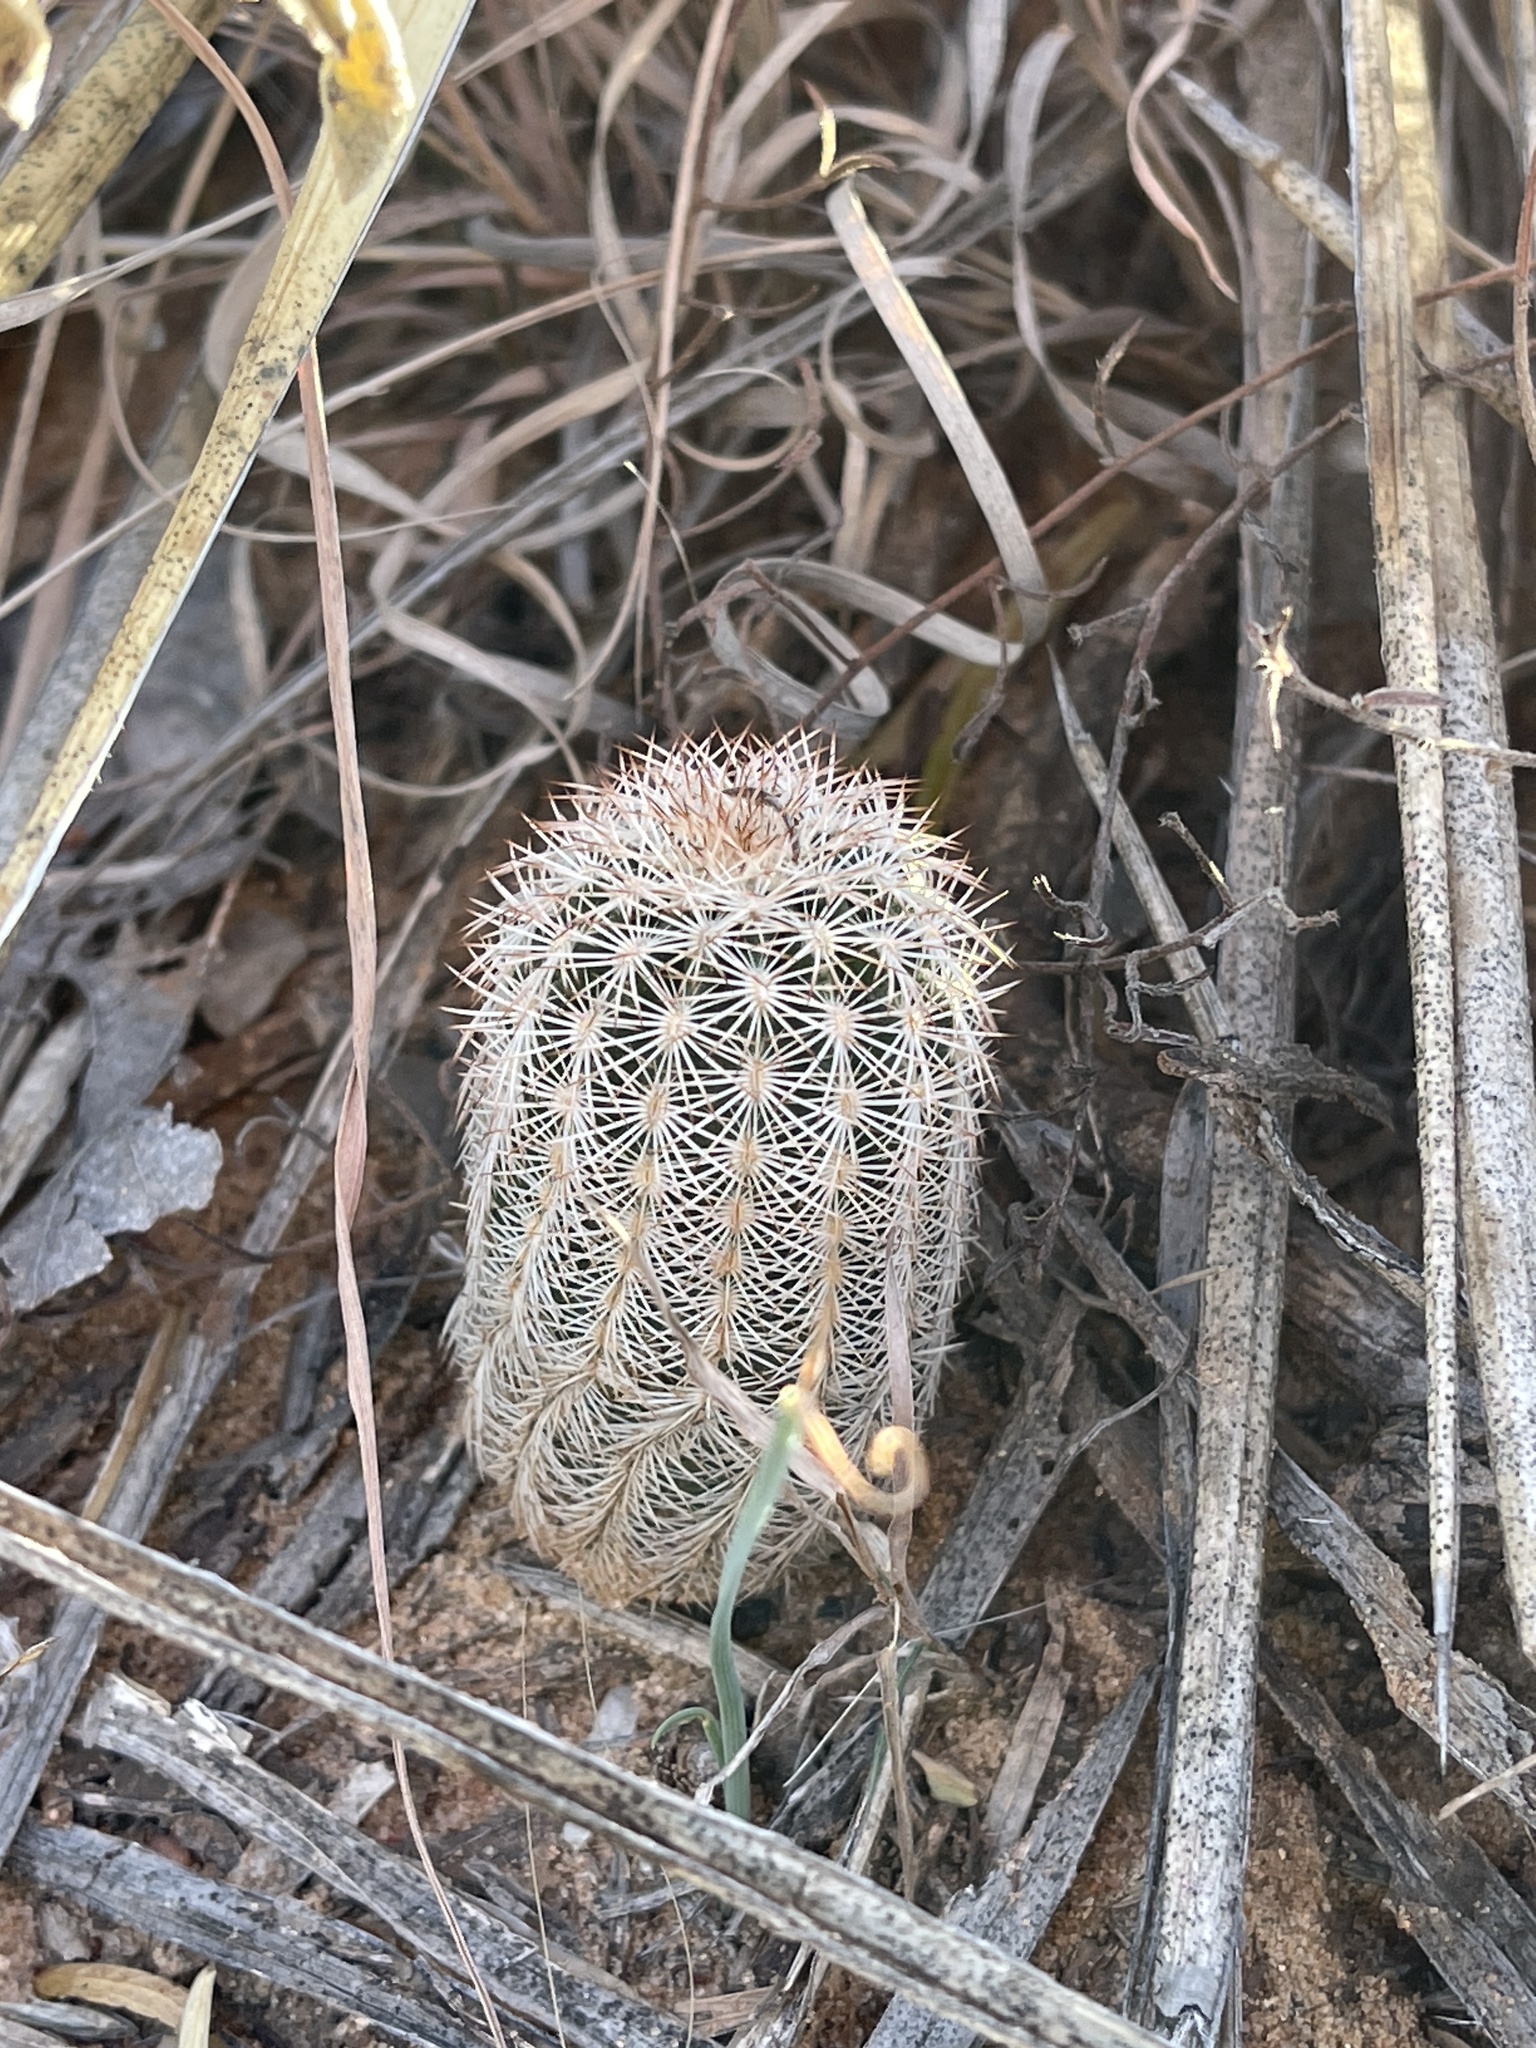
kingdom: Plantae
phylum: Tracheophyta
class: Magnoliopsida
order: Caryophyllales
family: Cactaceae
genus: Echinocereus
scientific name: Echinocereus reichenbachii
